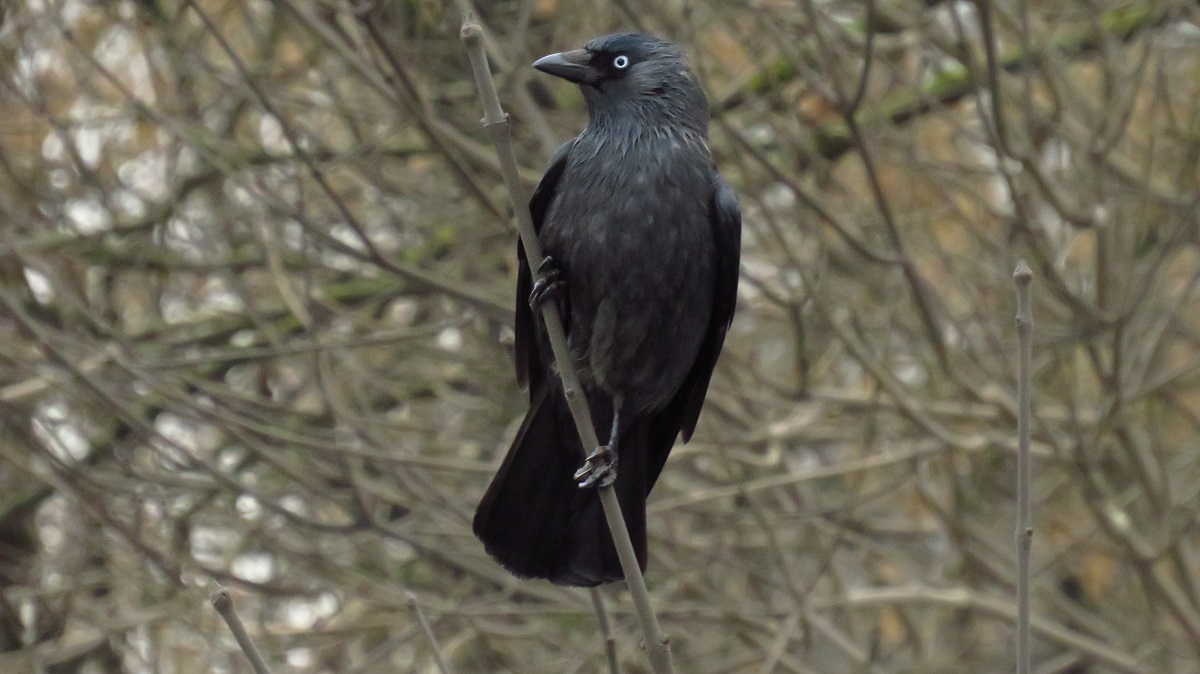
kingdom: Animalia
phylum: Chordata
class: Aves
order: Passeriformes
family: Corvidae
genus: Coloeus
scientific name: Coloeus monedula
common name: Western jackdaw
